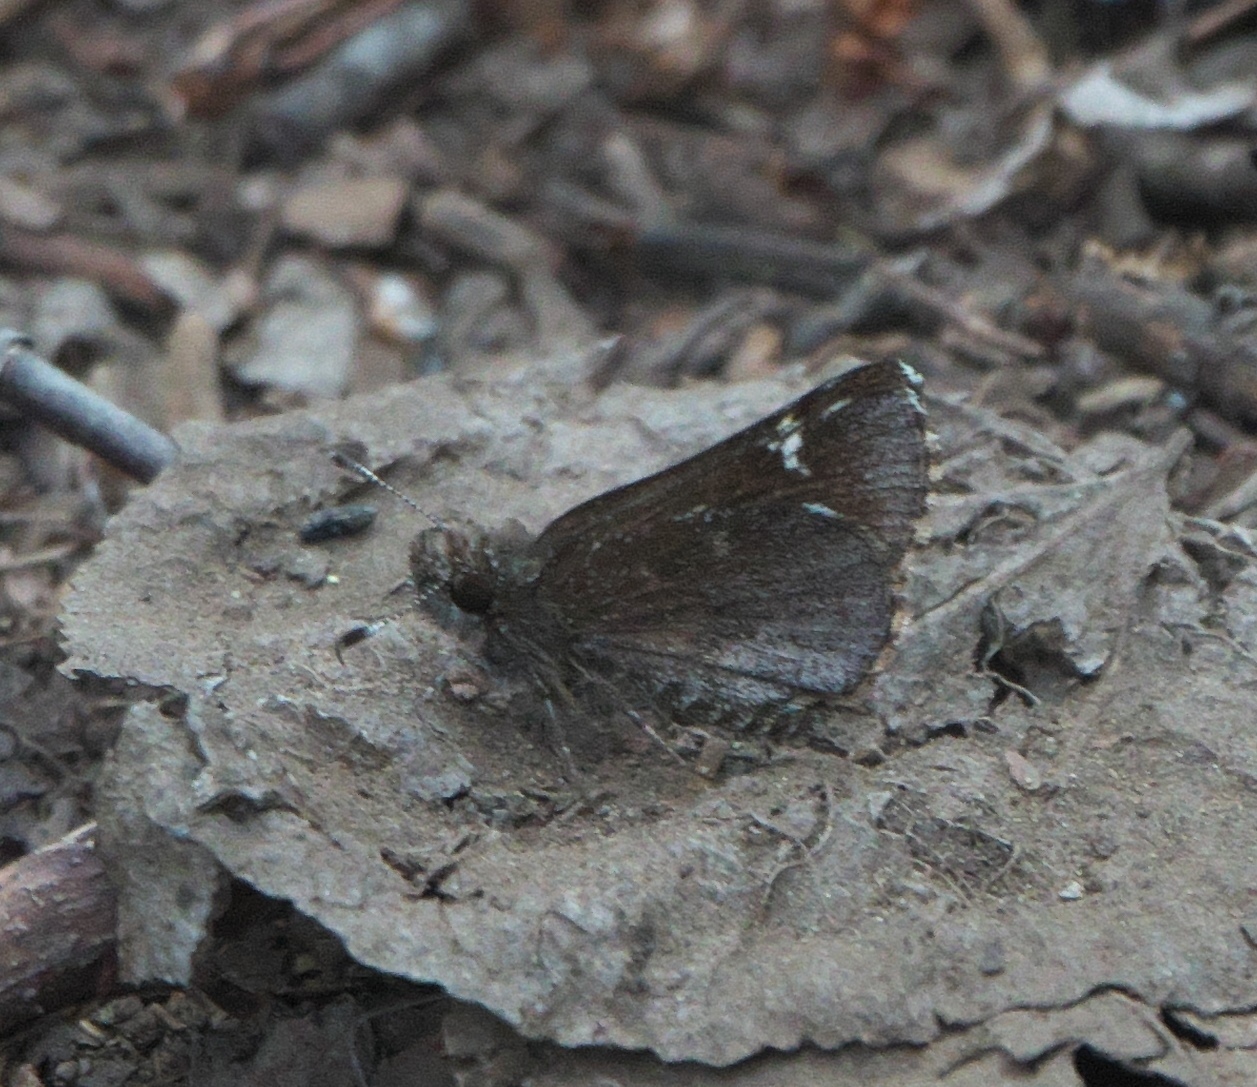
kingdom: Animalia
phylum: Arthropoda
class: Insecta
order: Lepidoptera
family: Hesperiidae
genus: Mastor
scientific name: Mastor vialis
